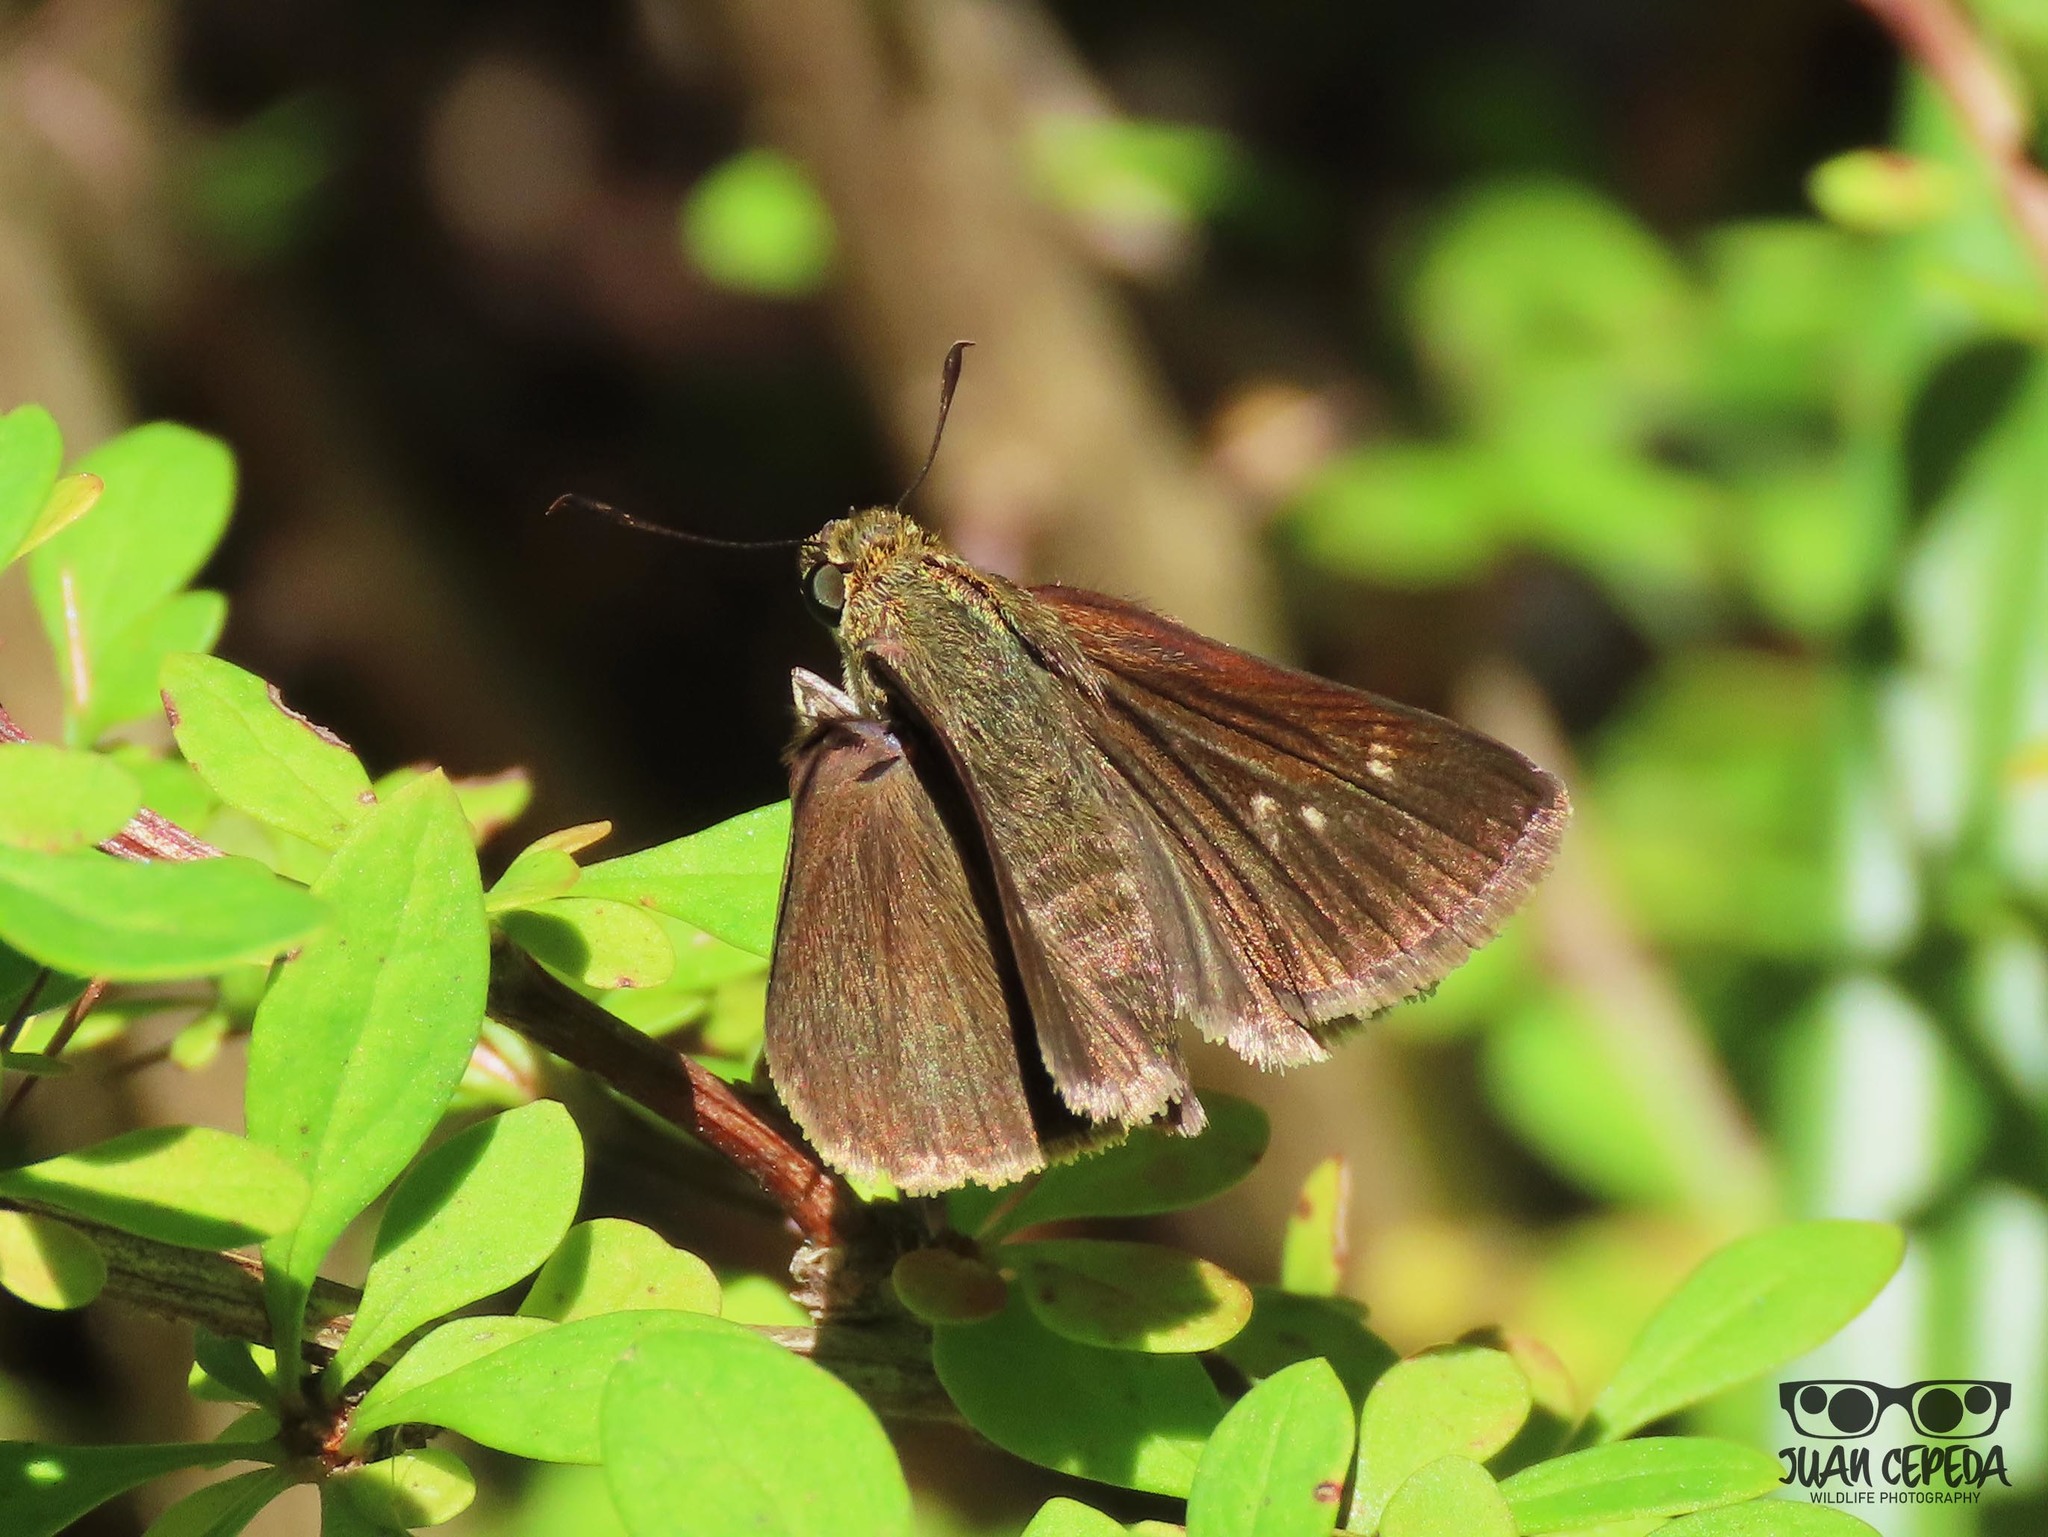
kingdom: Animalia
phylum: Arthropoda
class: Insecta
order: Lepidoptera
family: Hesperiidae
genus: Euphyes
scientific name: Euphyes vestris
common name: Dun skipper
